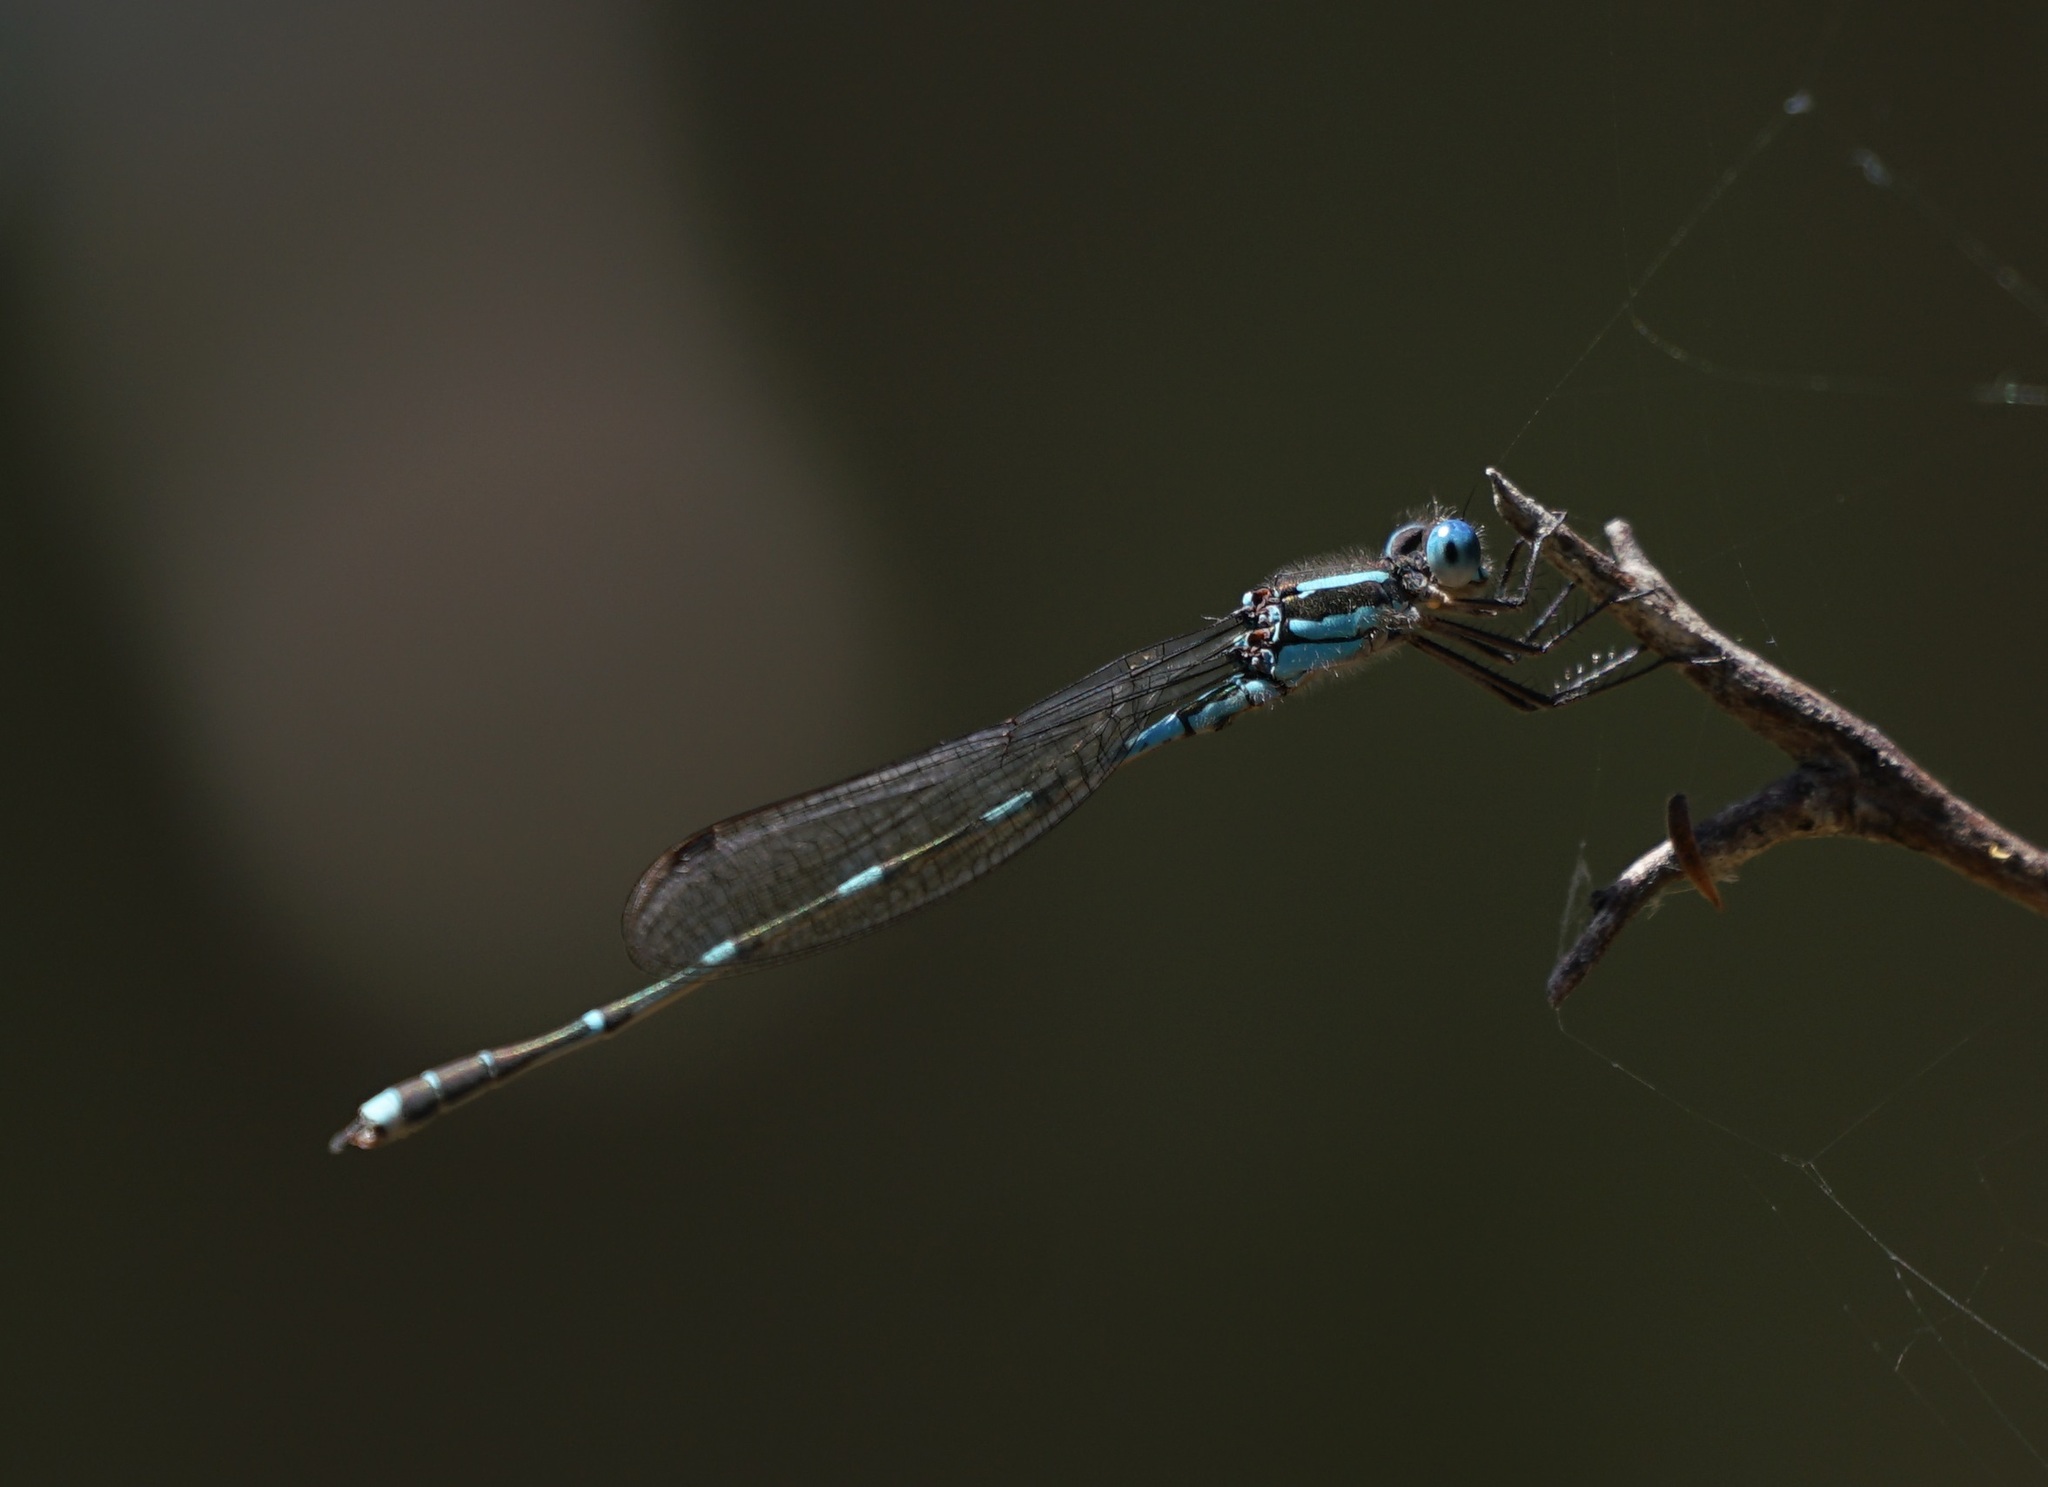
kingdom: Animalia
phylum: Arthropoda
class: Insecta
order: Odonata
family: Lestidae
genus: Austrolestes
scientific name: Austrolestes leda
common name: Wandering ringtail
